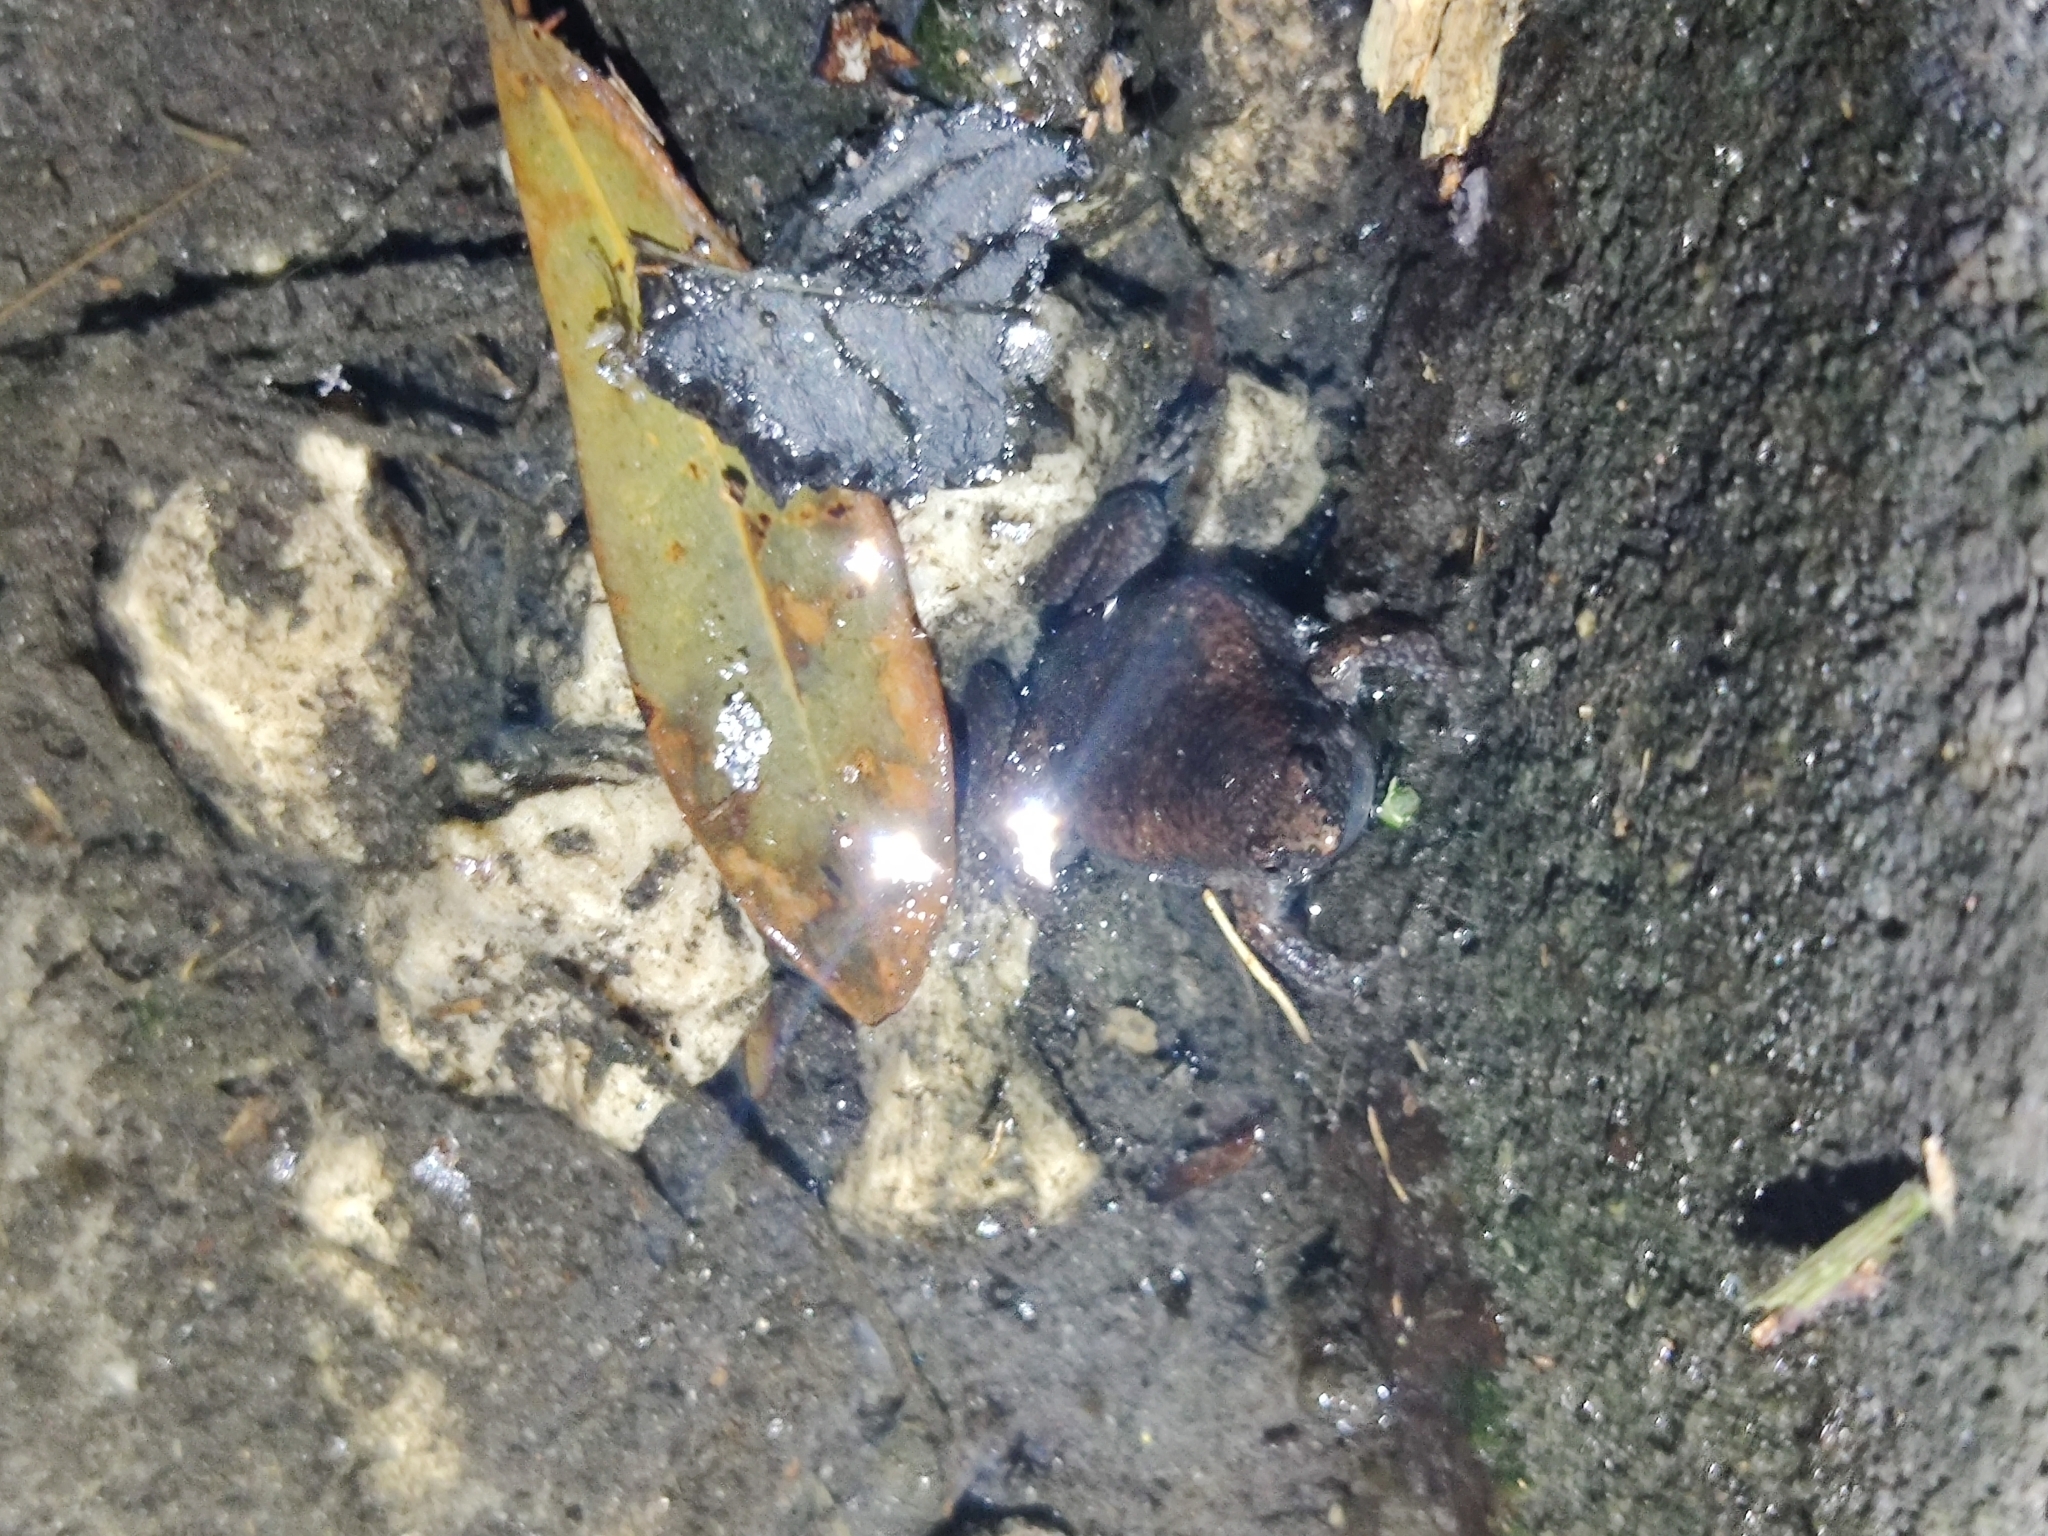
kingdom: Animalia
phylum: Chordata
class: Amphibia
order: Anura
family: Microhylidae
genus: Gastrophryne
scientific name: Gastrophryne carolinensis
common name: Eastern narrowmouth toad
